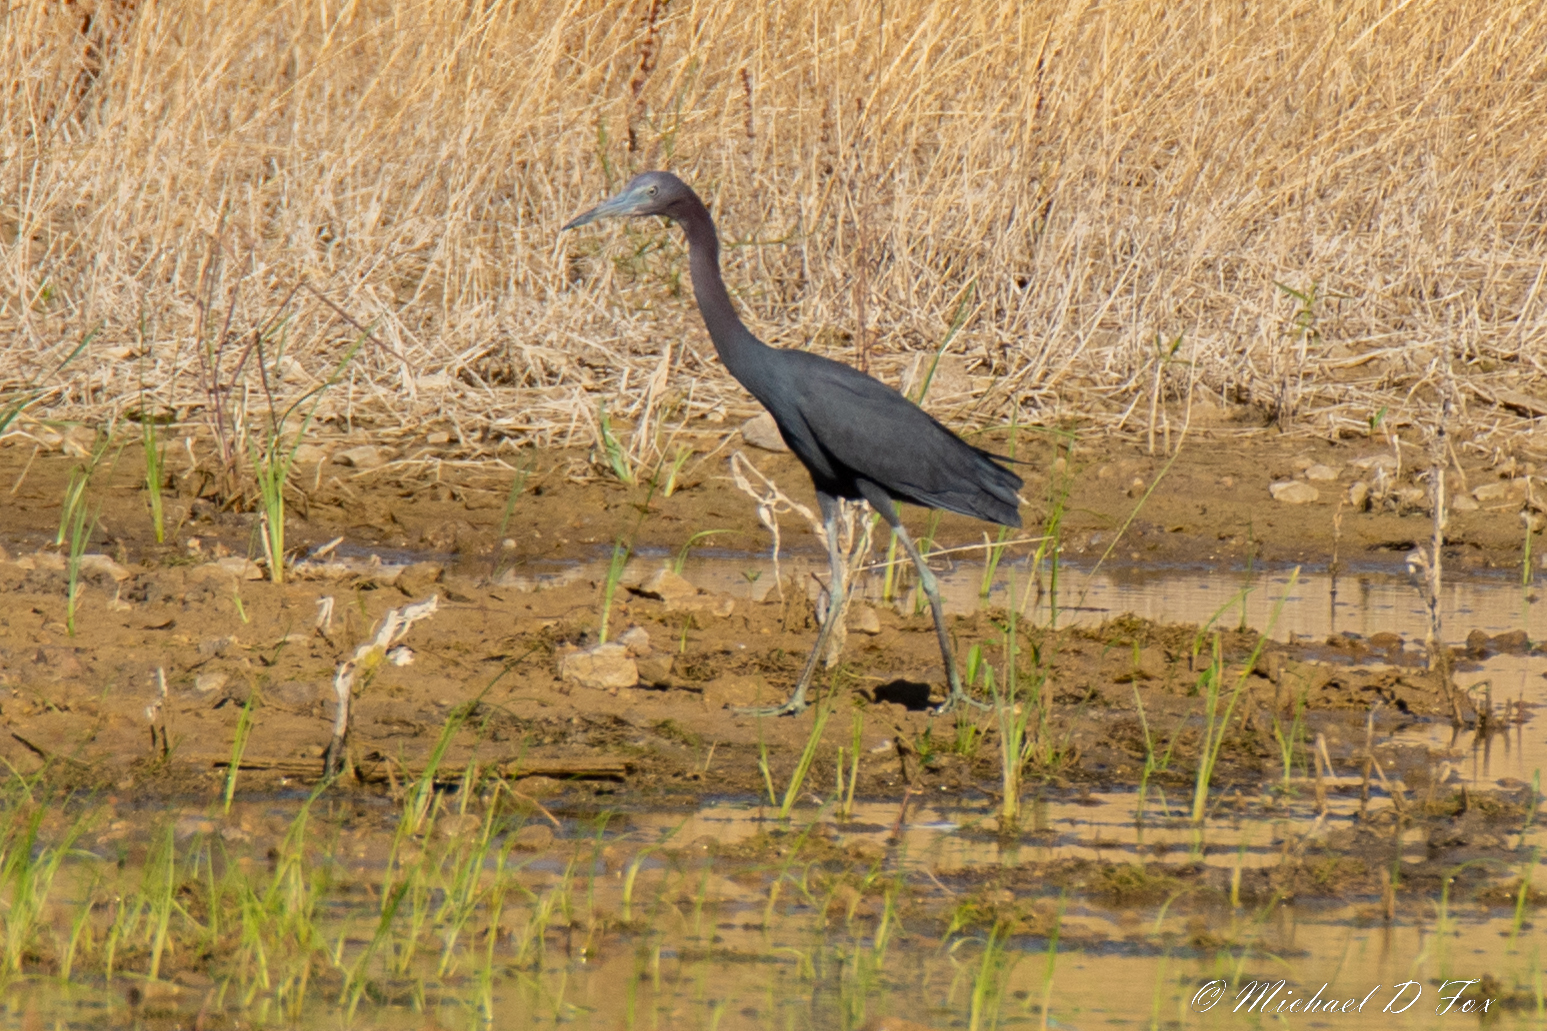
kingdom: Animalia
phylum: Chordata
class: Aves
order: Pelecaniformes
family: Ardeidae
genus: Egretta
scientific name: Egretta caerulea
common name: Little blue heron
